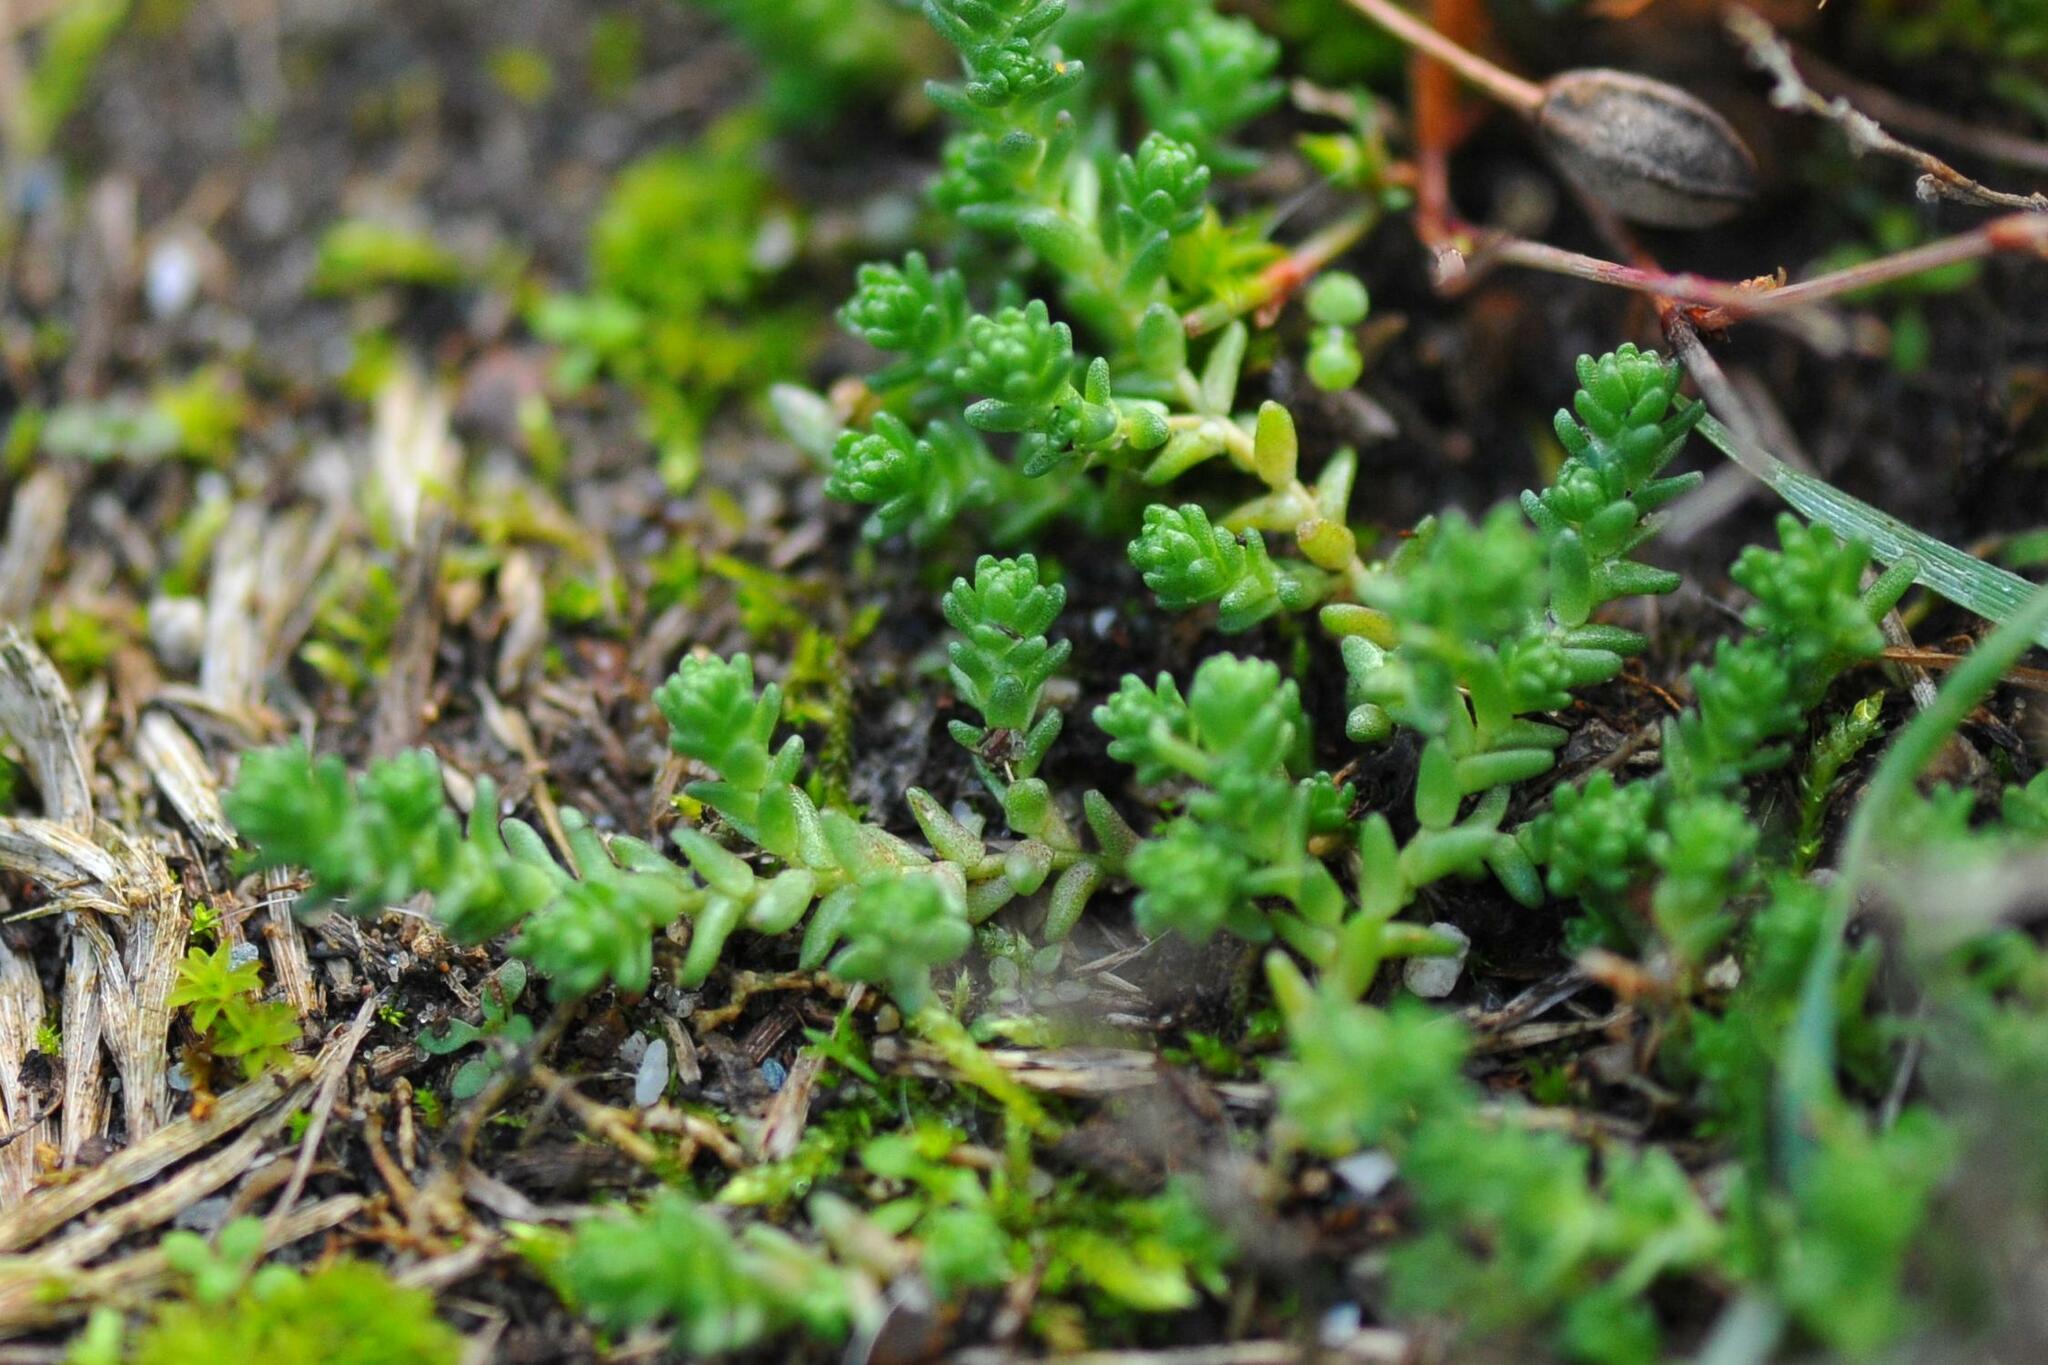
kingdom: Plantae
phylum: Tracheophyta
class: Magnoliopsida
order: Saxifragales
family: Crassulaceae
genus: Sedum
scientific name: Sedum acre
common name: Biting stonecrop
